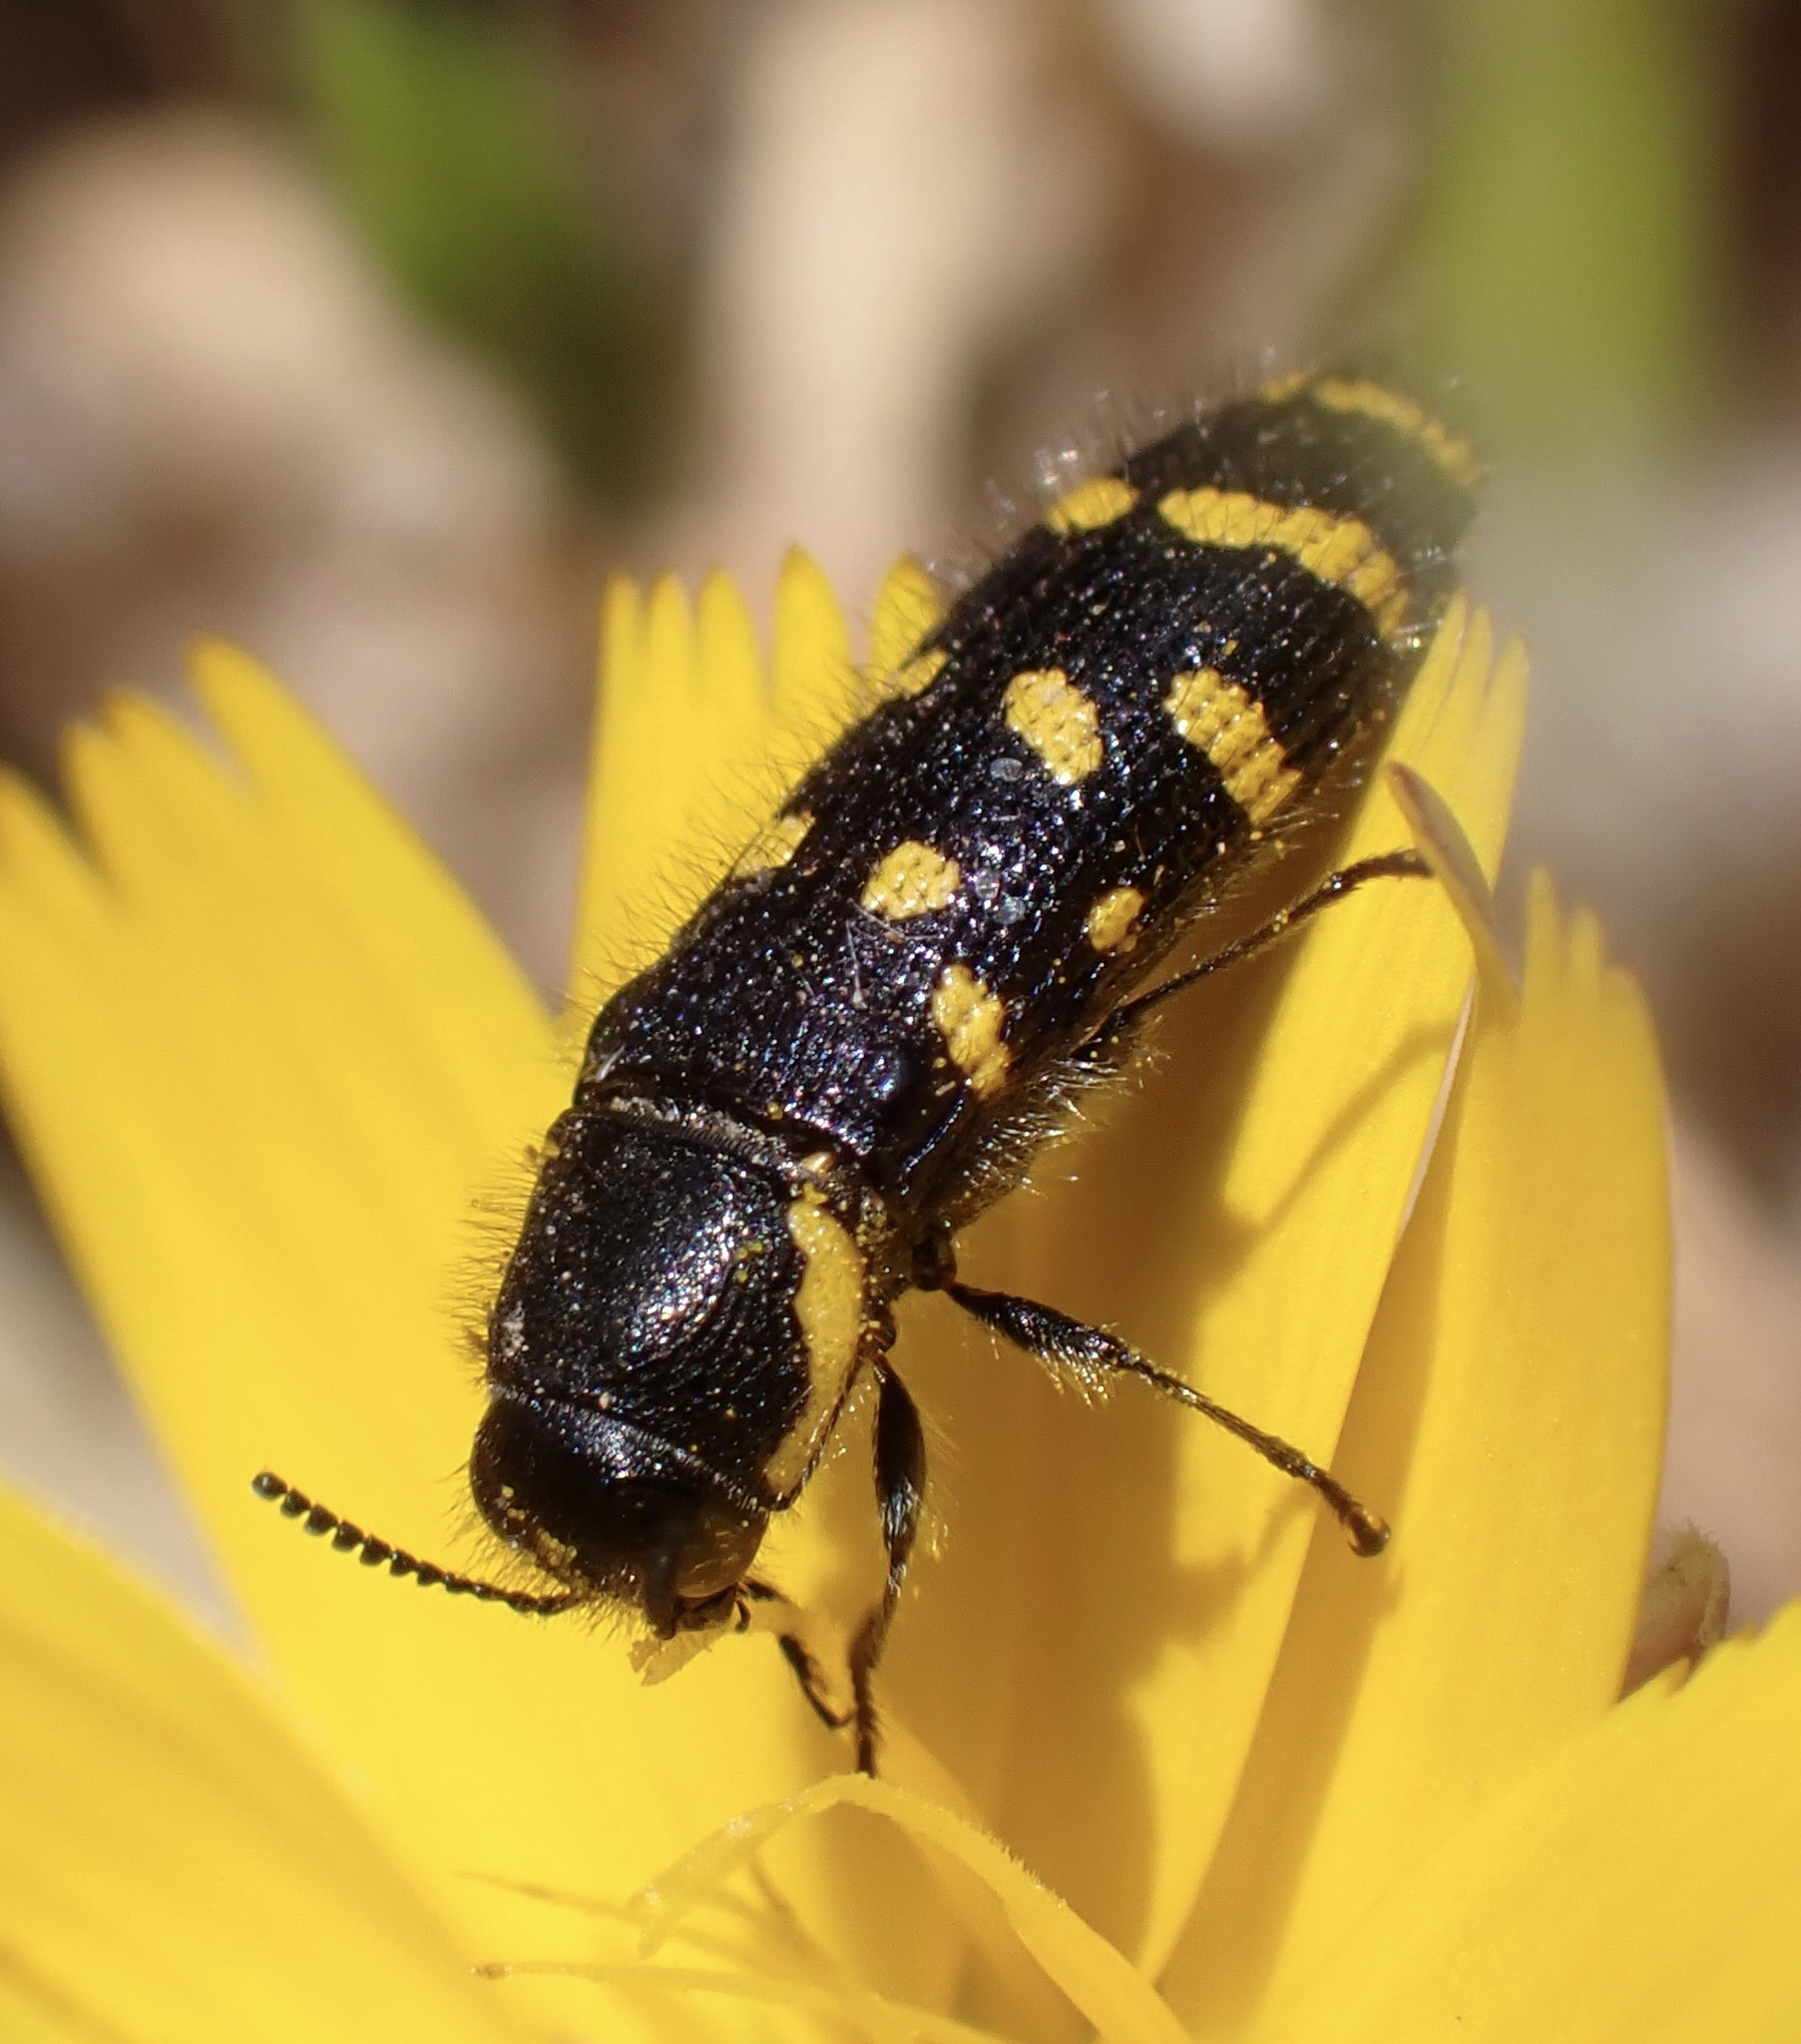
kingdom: Animalia
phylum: Arthropoda
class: Insecta
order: Coleoptera
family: Buprestidae
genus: Acmaeodera
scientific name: Acmaeodera quadrifasciata
